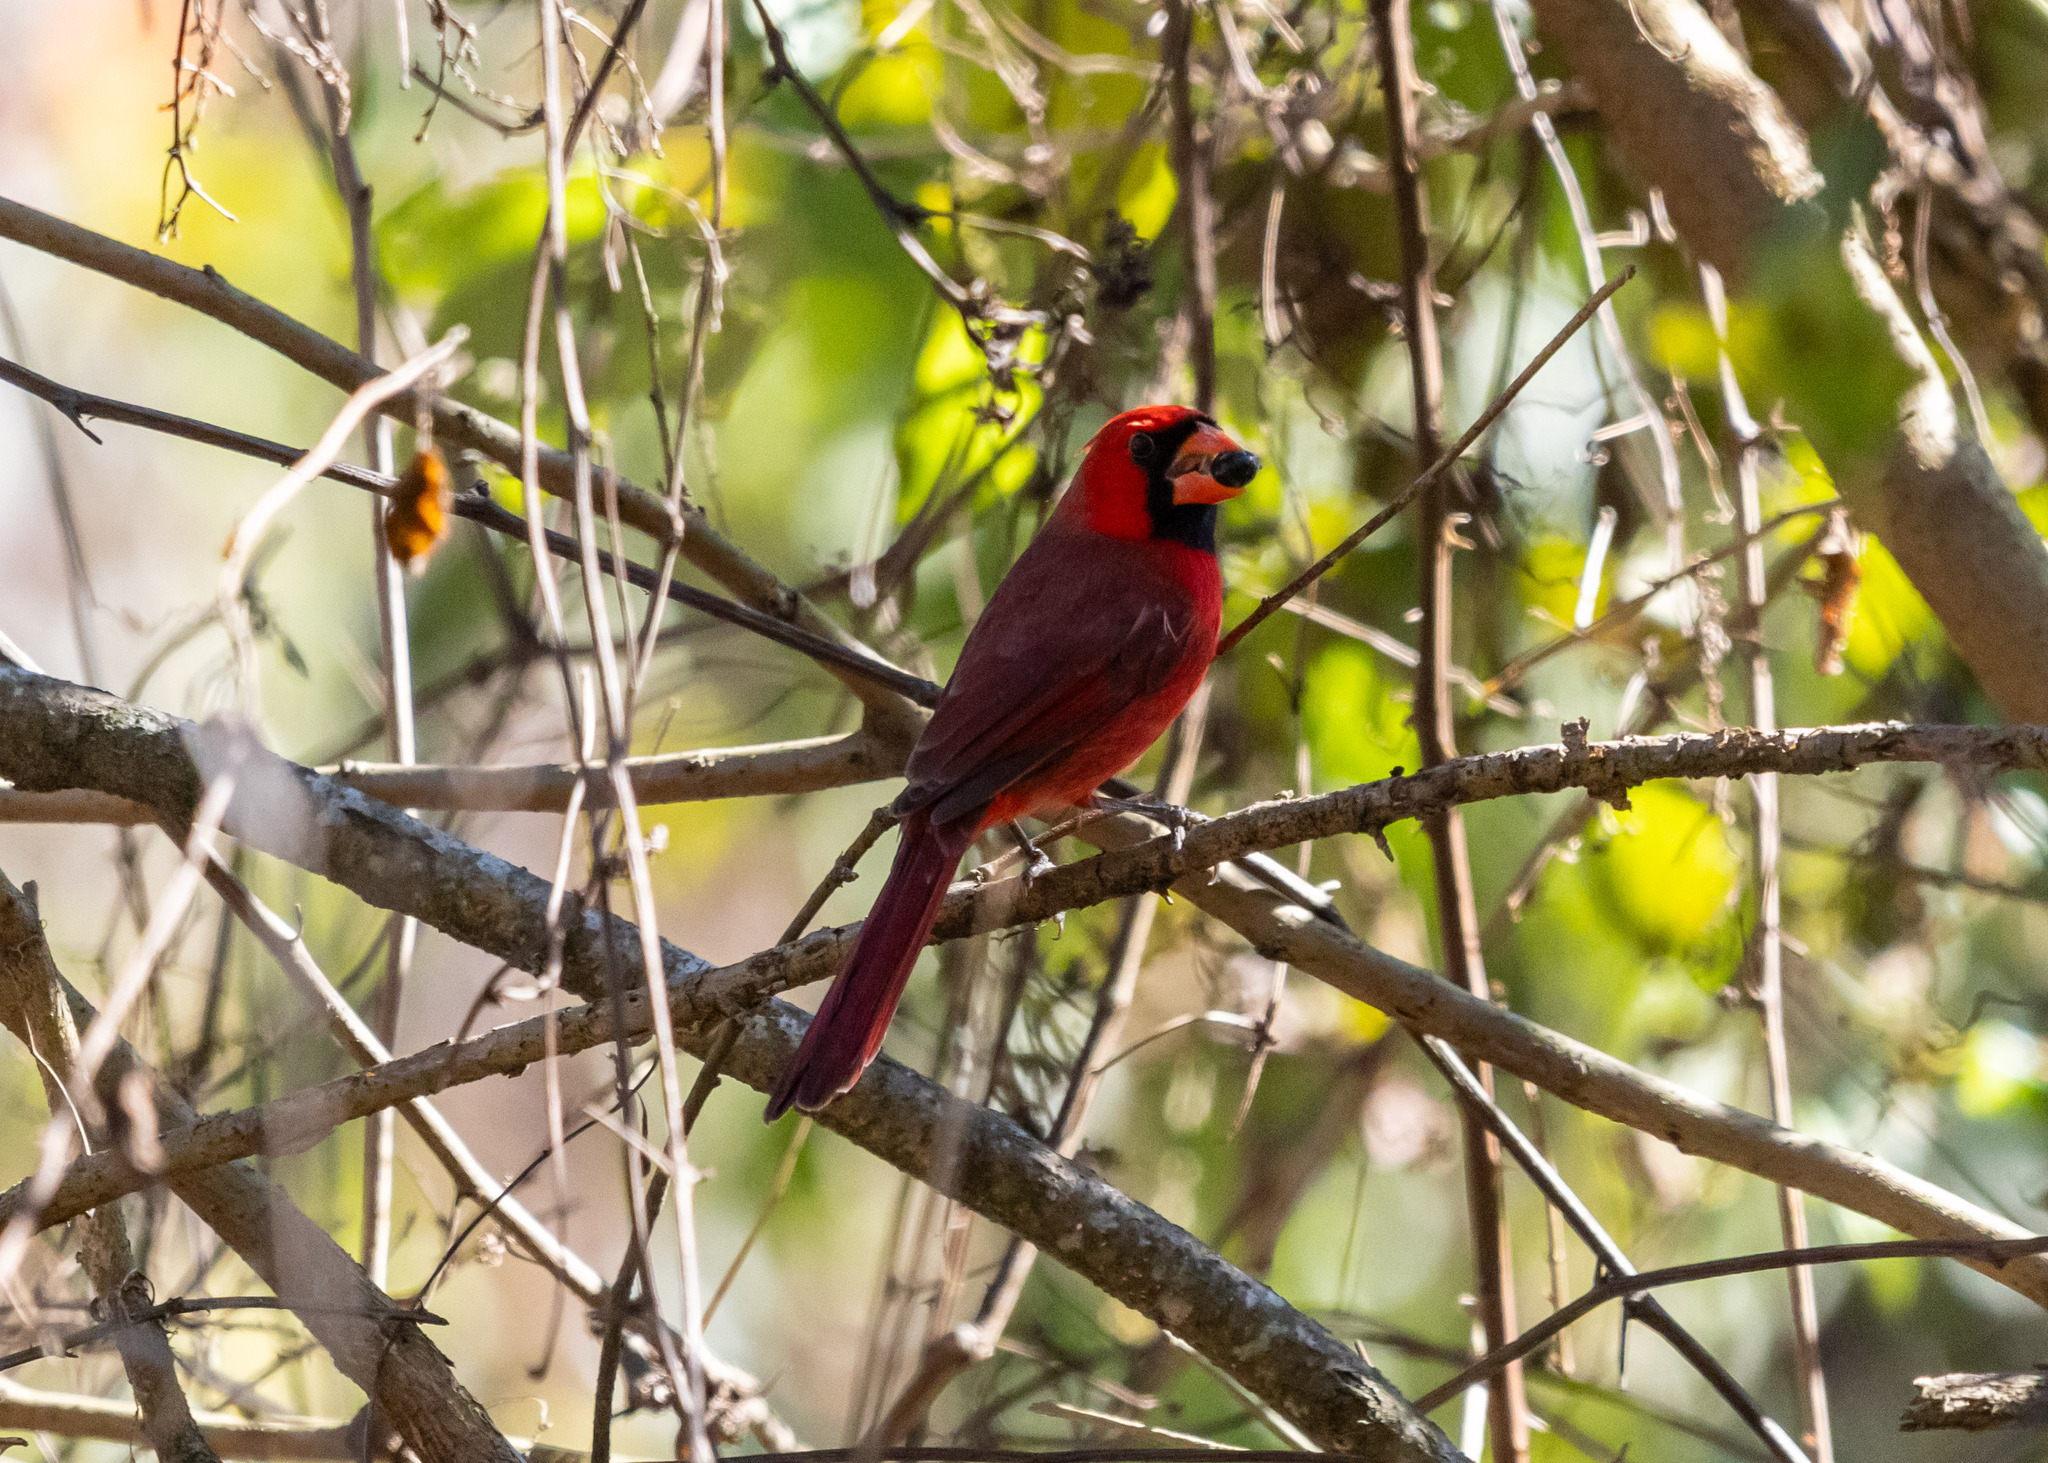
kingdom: Animalia
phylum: Chordata
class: Aves
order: Passeriformes
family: Cardinalidae
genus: Cardinalis
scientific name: Cardinalis cardinalis
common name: Northern cardinal
